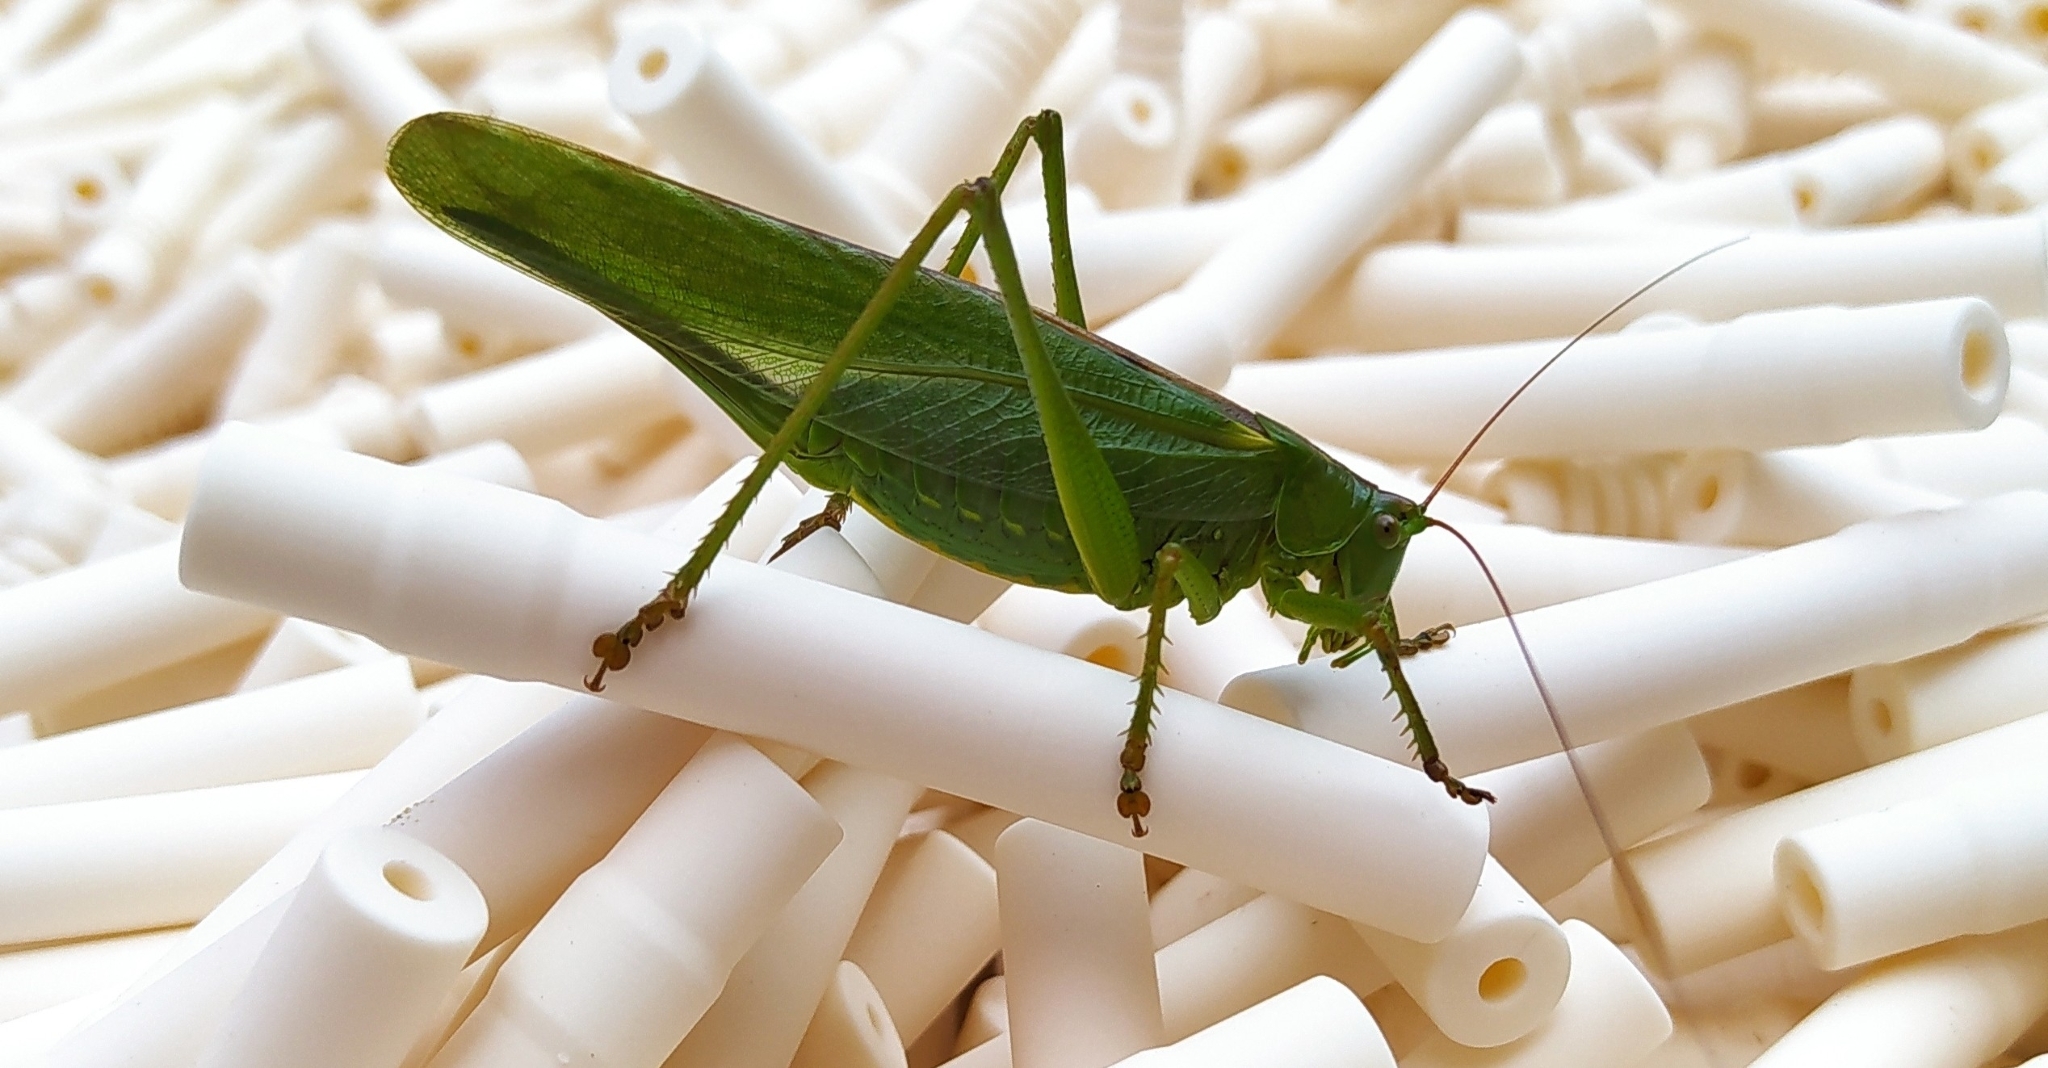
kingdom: Animalia
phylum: Arthropoda
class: Insecta
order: Orthoptera
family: Tettigoniidae
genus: Tettigonia
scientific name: Tettigonia viridissima
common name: Great green bush-cricket
